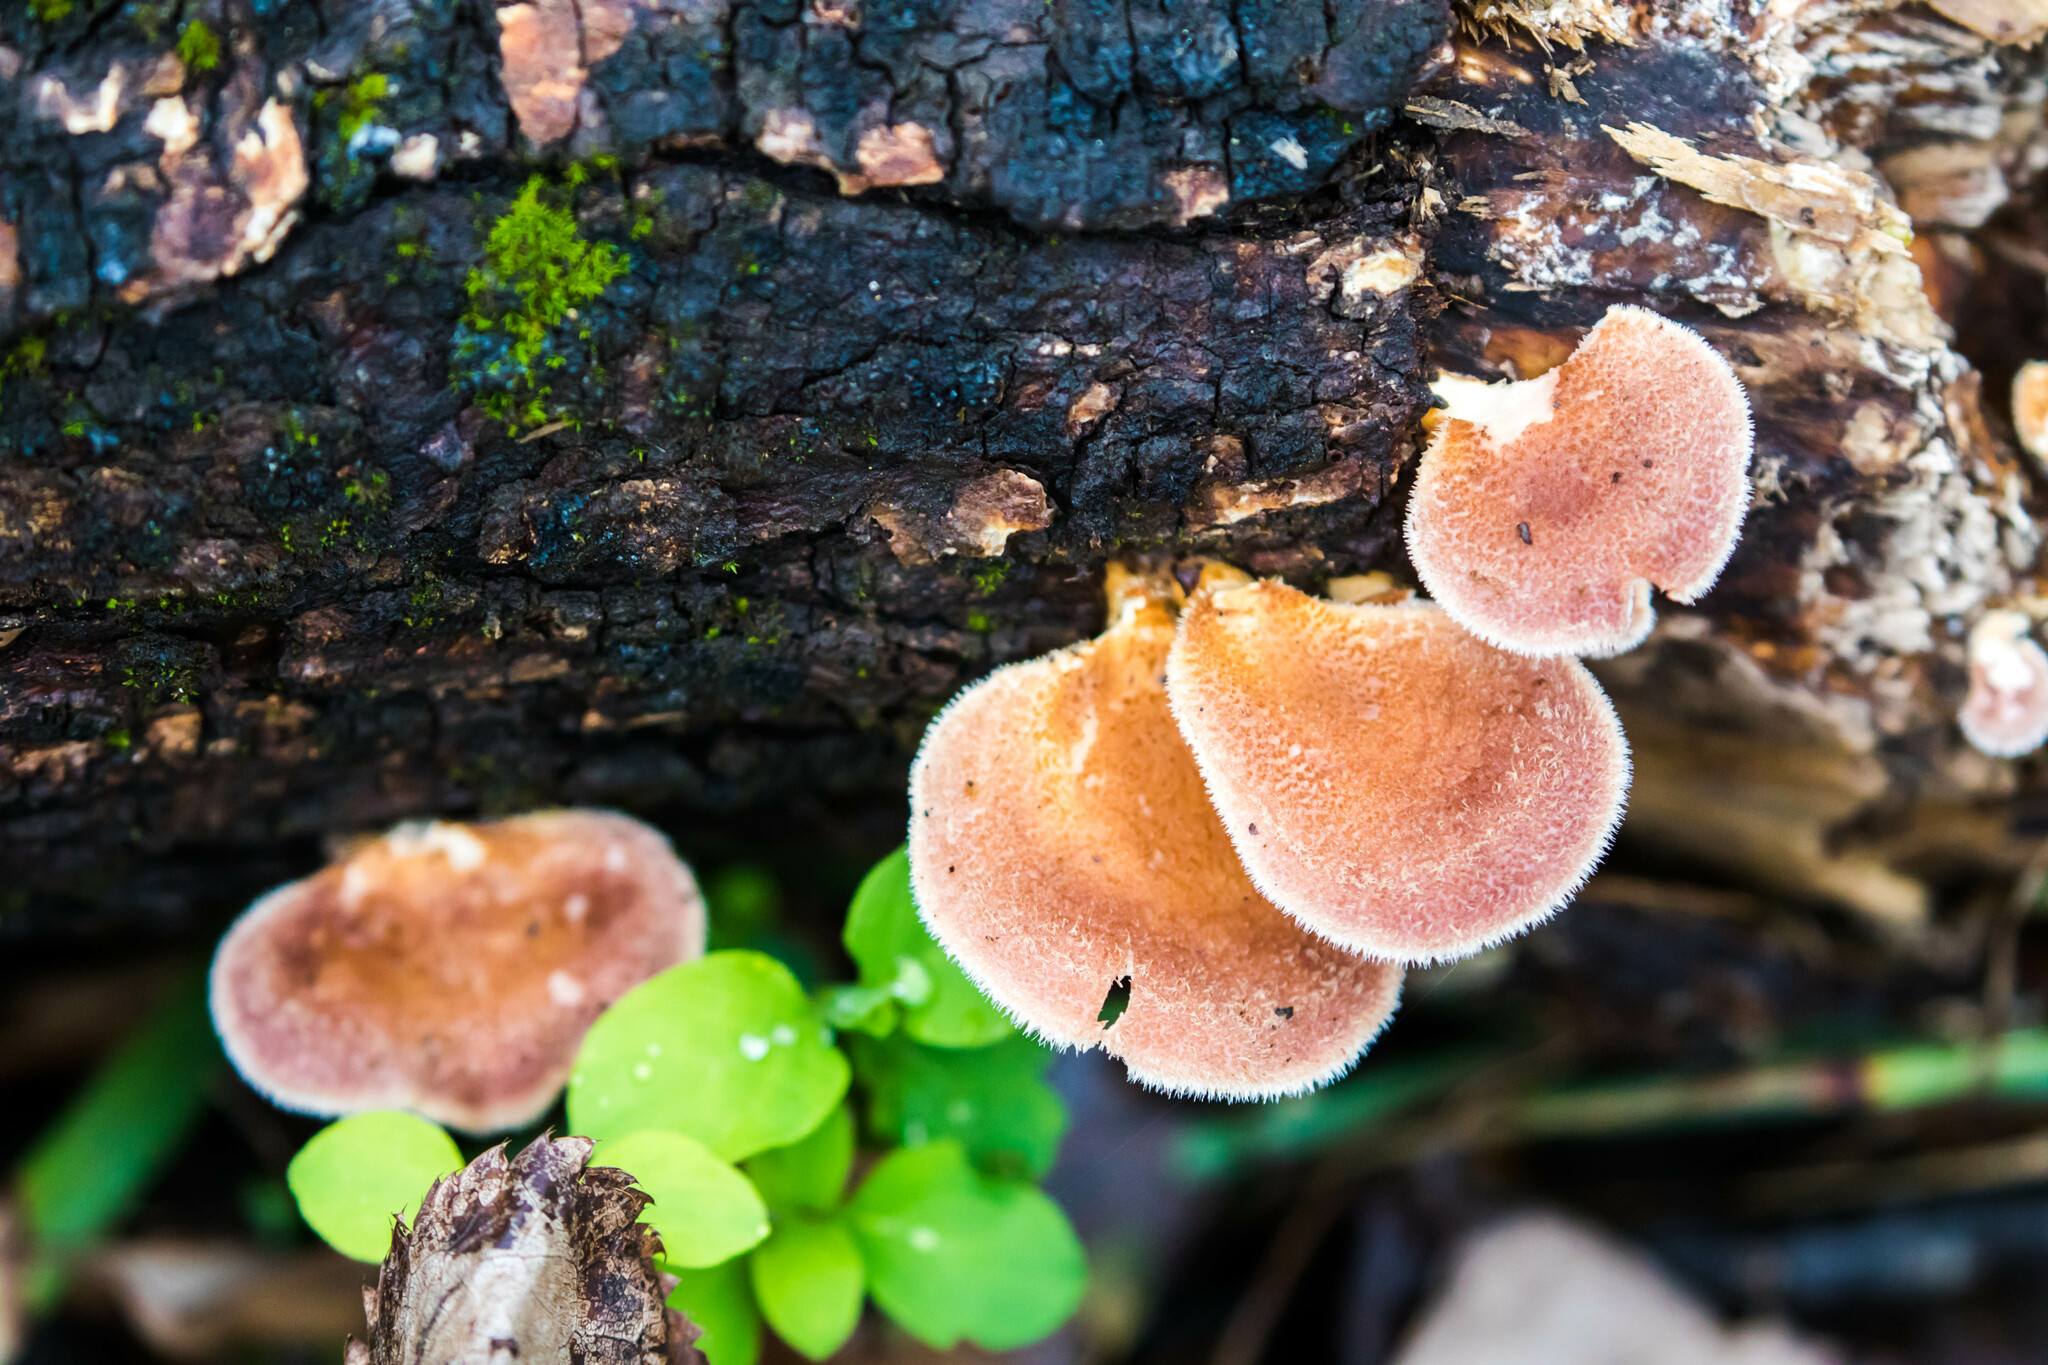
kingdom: Fungi
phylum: Basidiomycota
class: Agaricomycetes
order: Polyporales
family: Panaceae
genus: Panus
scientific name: Panus neostrigosus
